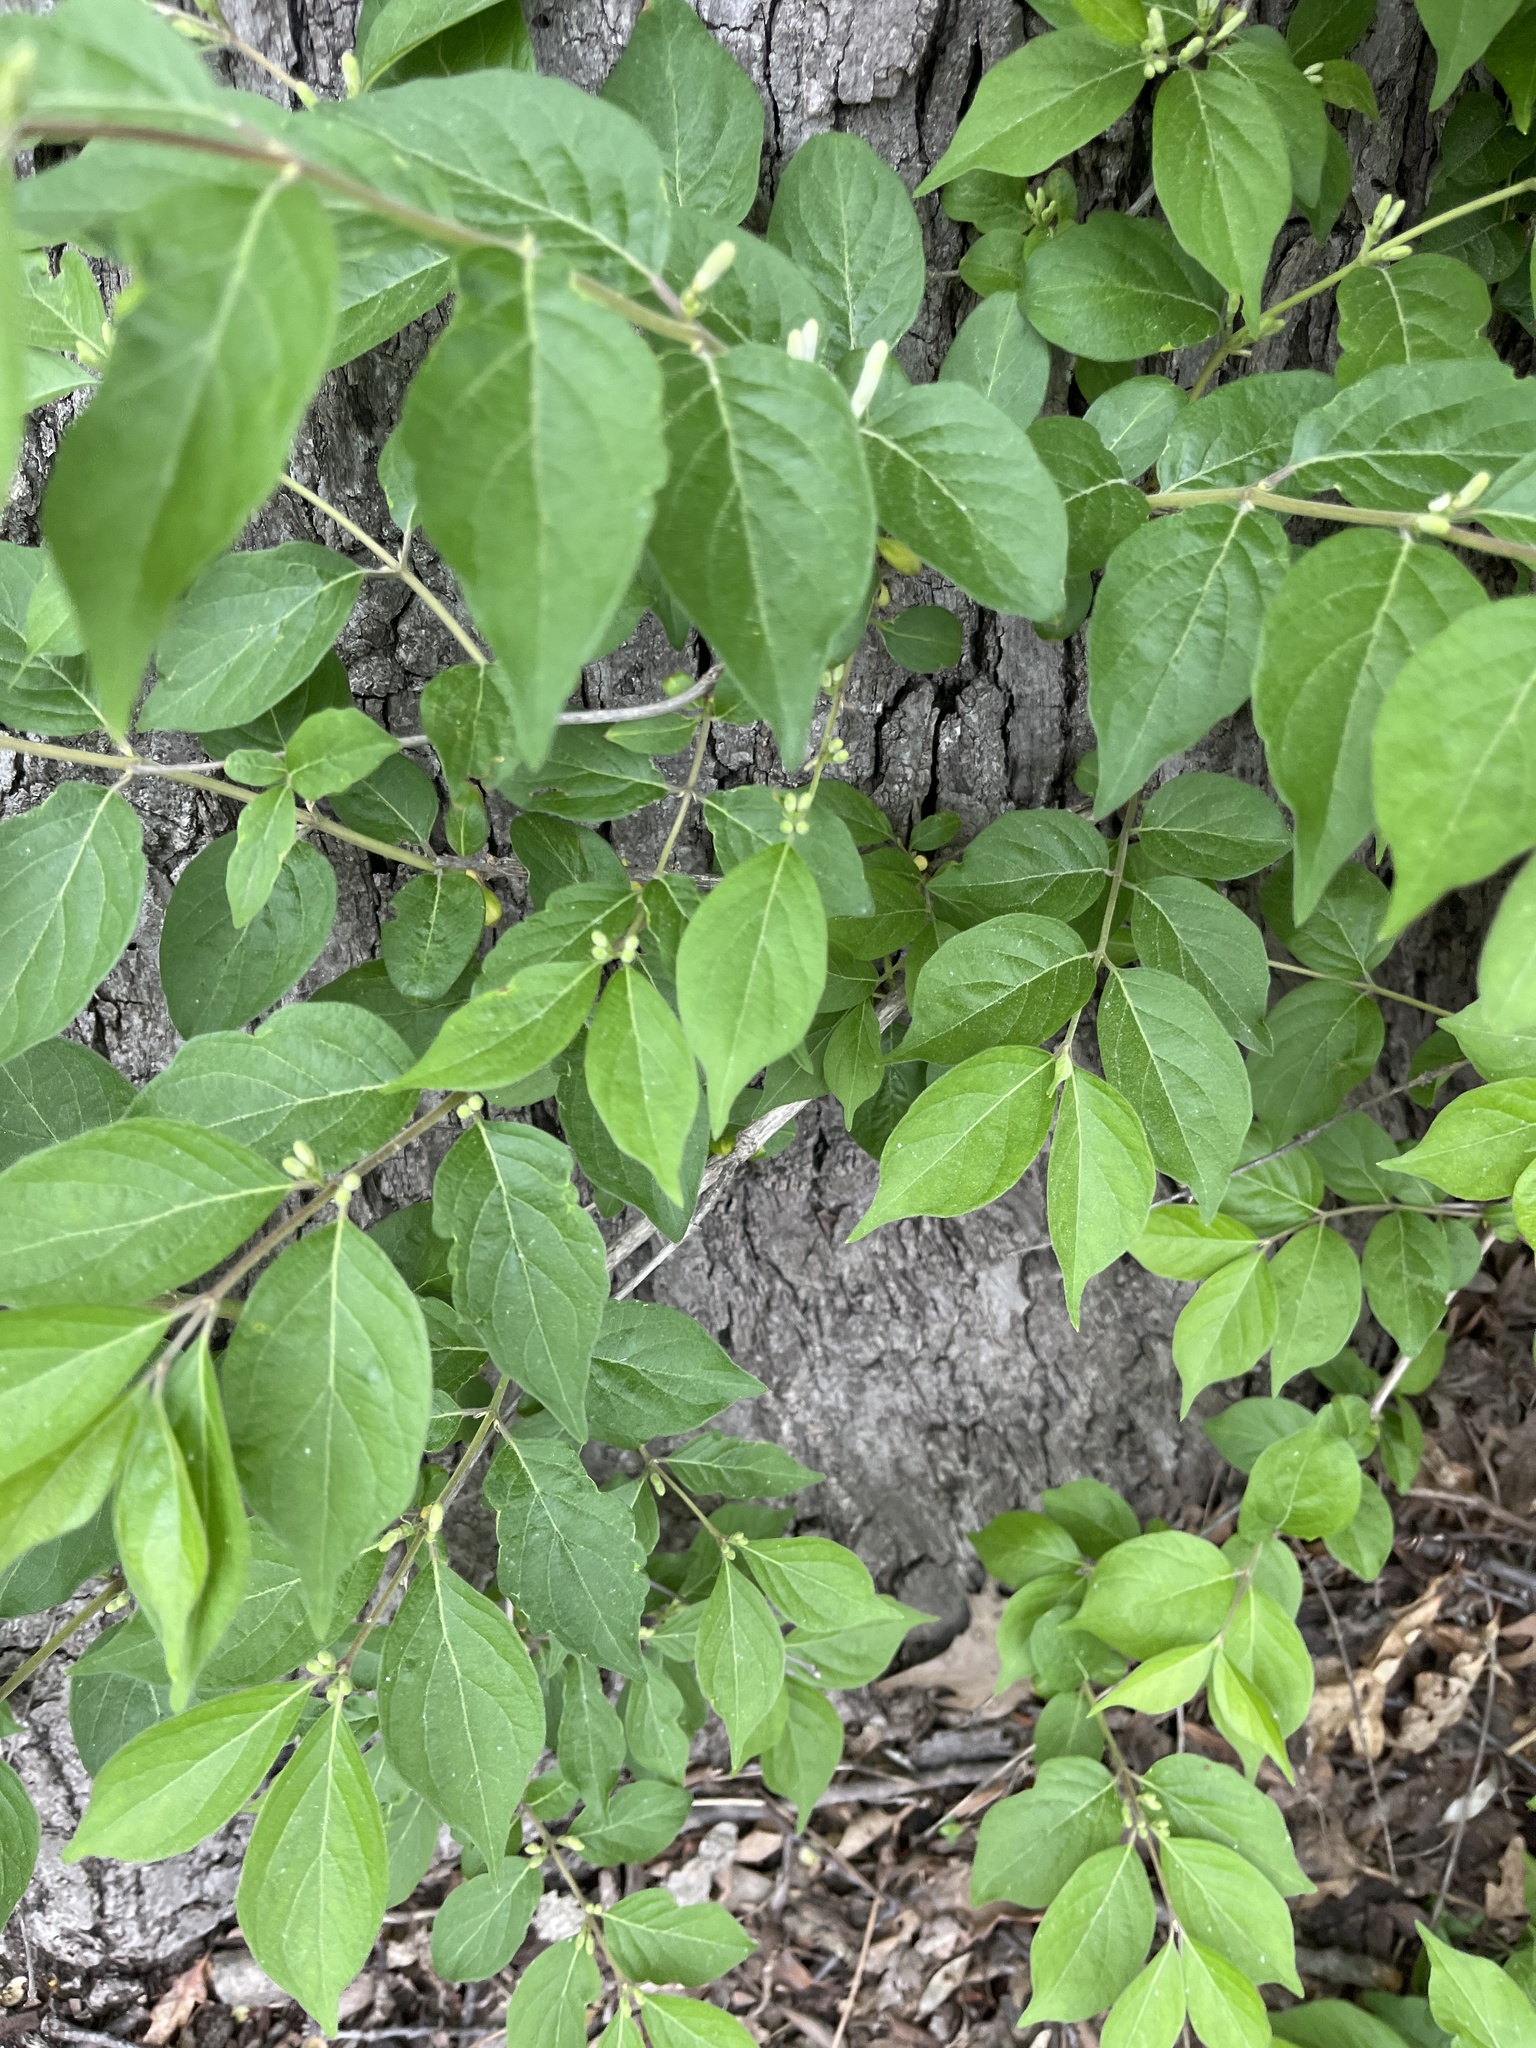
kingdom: Plantae
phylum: Tracheophyta
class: Magnoliopsida
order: Dipsacales
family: Caprifoliaceae
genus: Lonicera
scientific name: Lonicera maackii
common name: Amur honeysuckle
